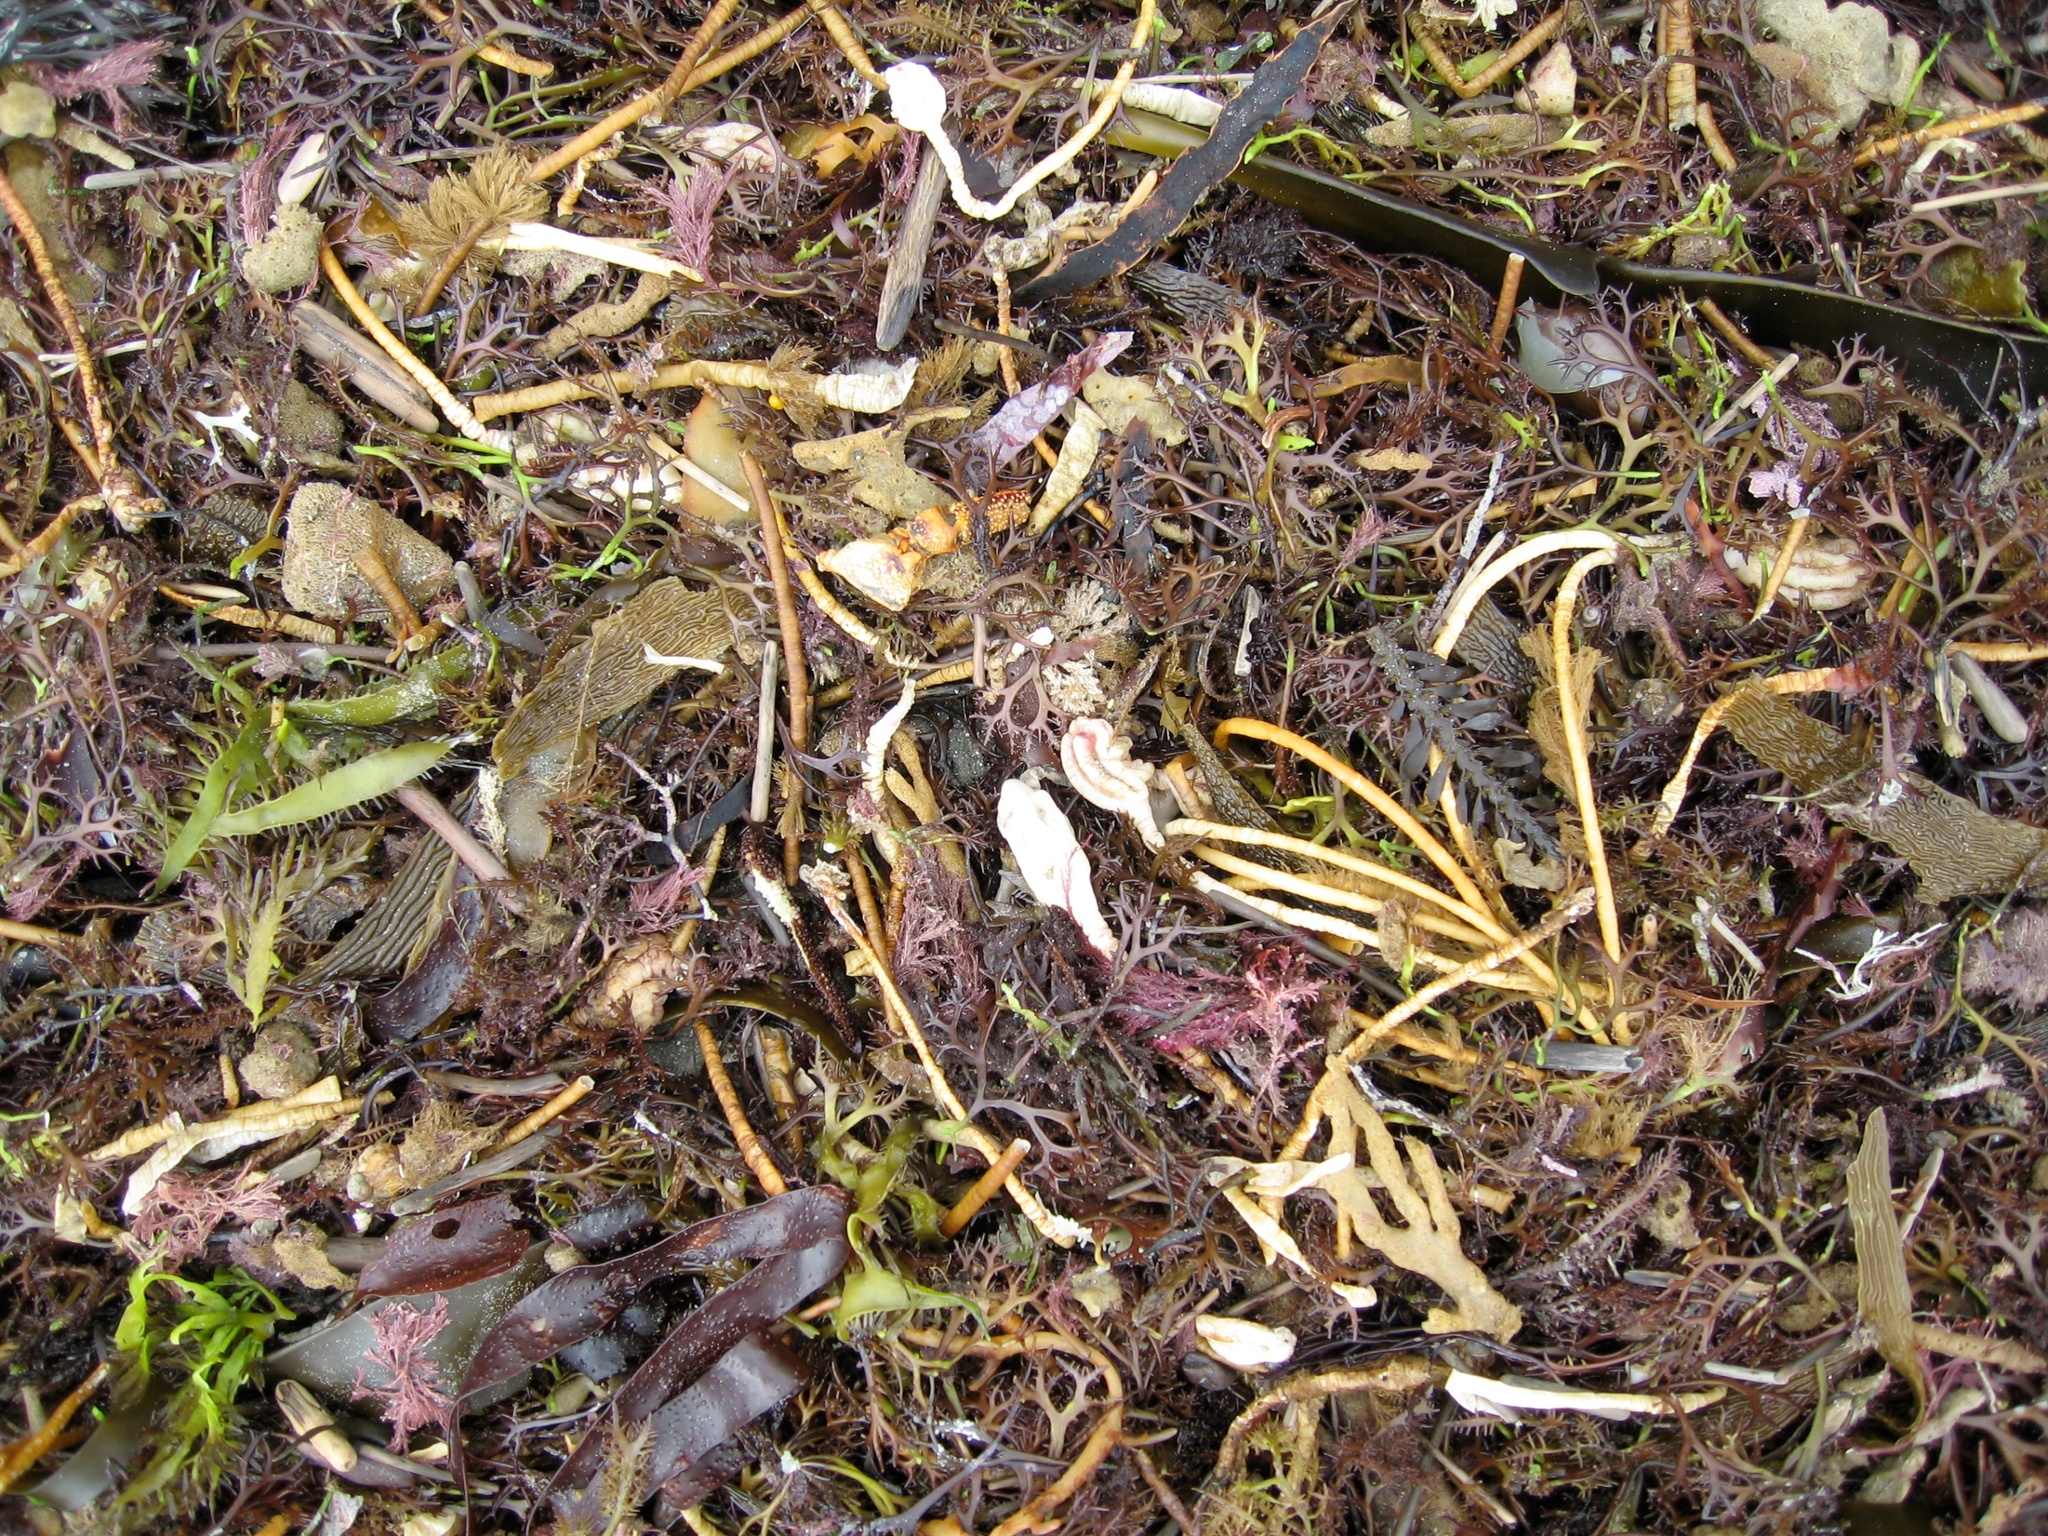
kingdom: Animalia
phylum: Chordata
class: Ascidiacea
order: Stolidobranchia
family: Pyuridae
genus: Pyura
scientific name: Pyura pachydermatina
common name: Sea tulip
